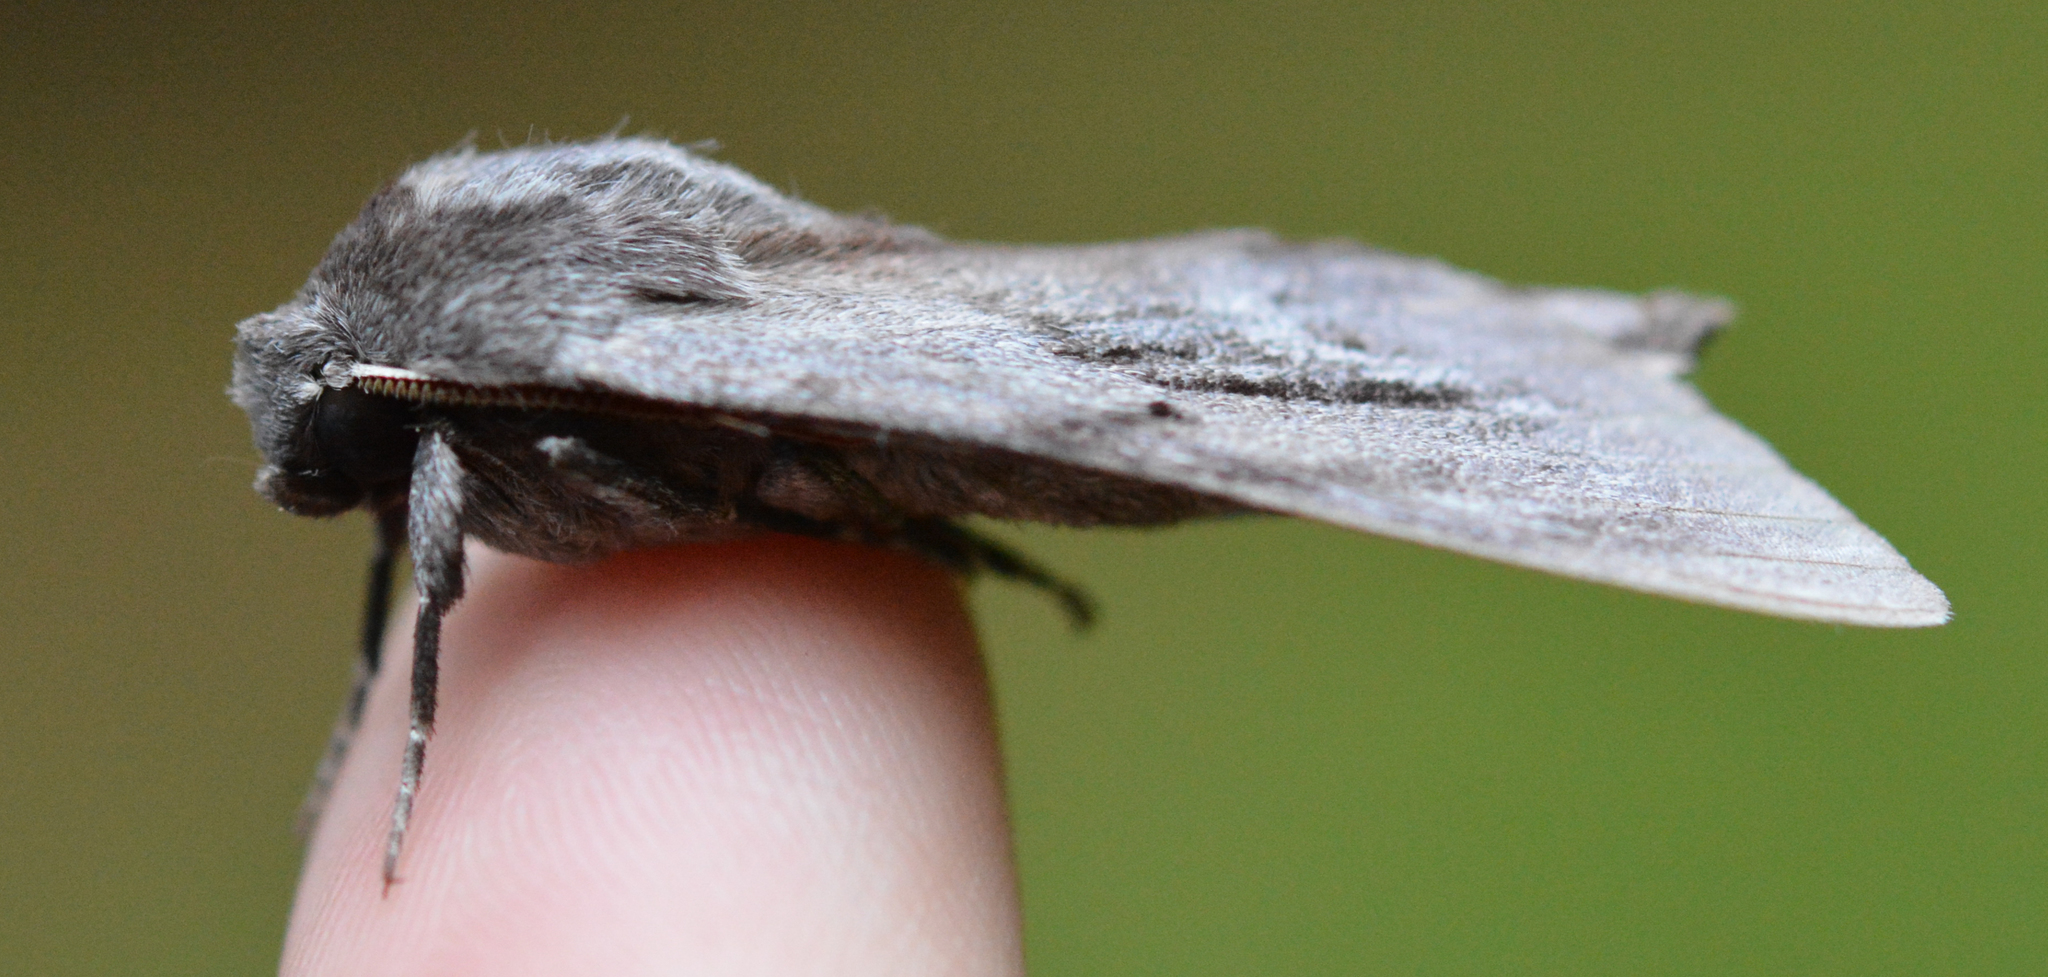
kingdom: Animalia
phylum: Arthropoda
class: Insecta
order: Lepidoptera
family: Sphingidae
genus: Lapara
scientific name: Lapara coniferarum
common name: Southern pine sphinx
